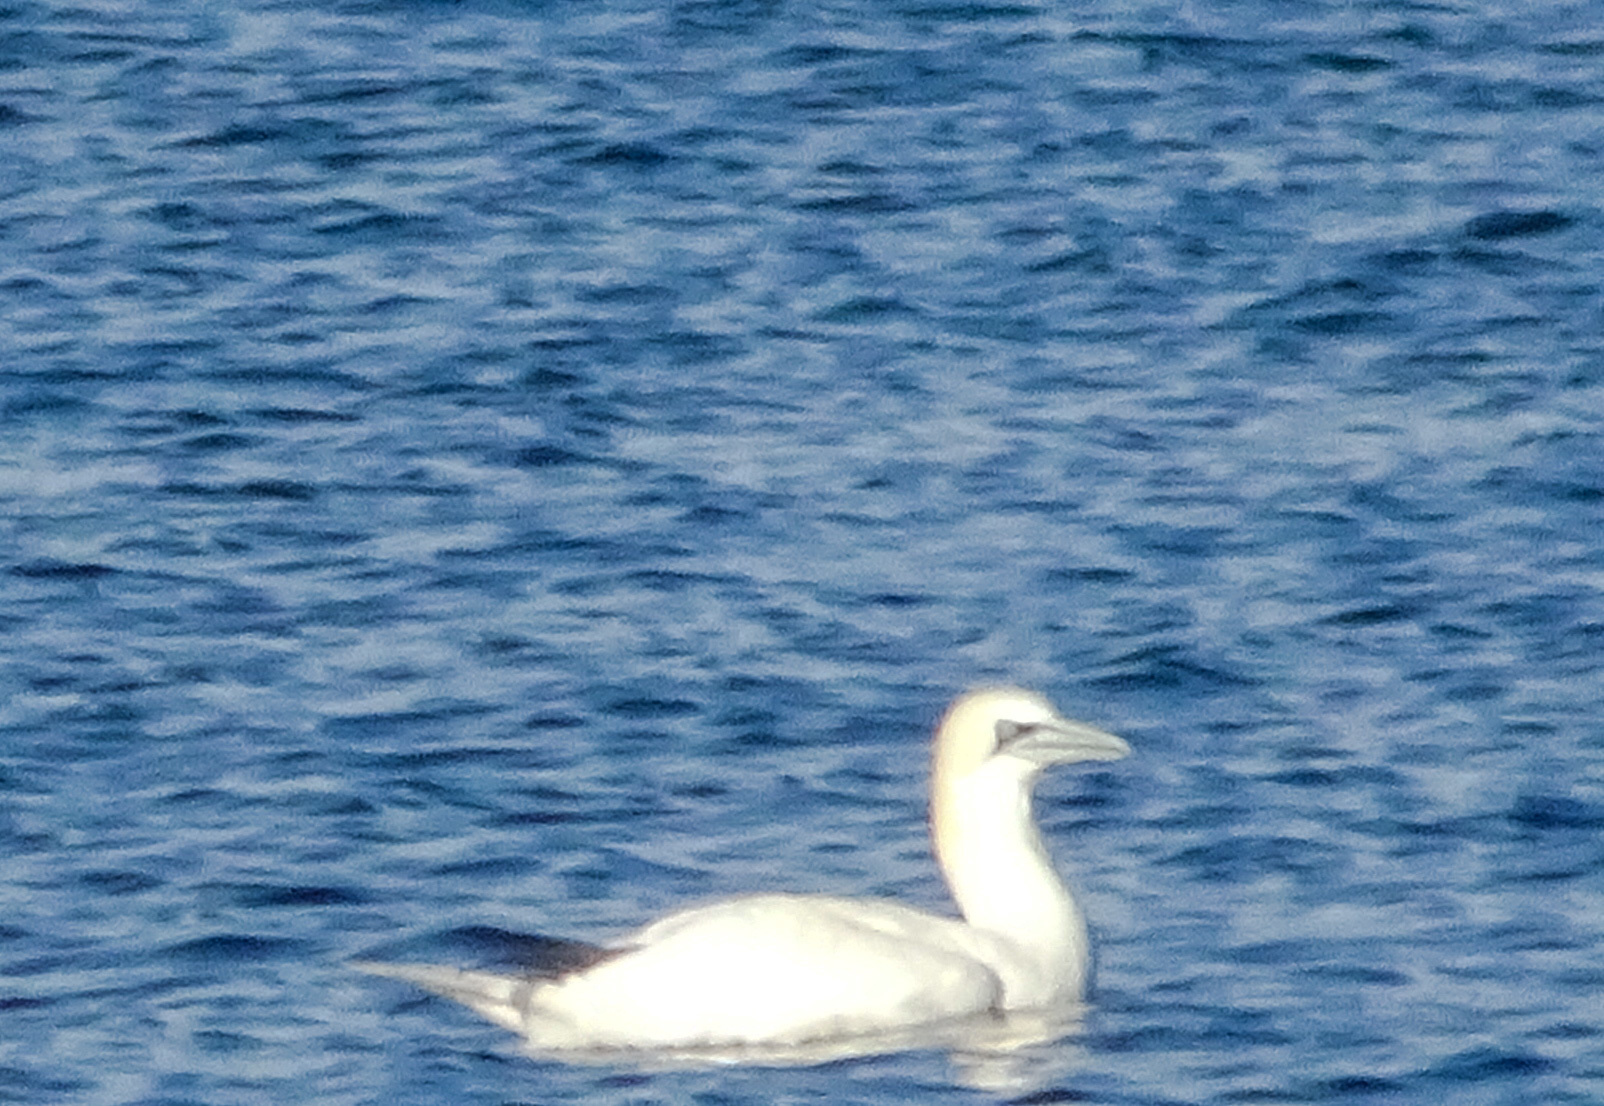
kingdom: Animalia
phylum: Chordata
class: Aves
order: Suliformes
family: Sulidae
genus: Morus
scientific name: Morus bassanus
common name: Northern gannet
